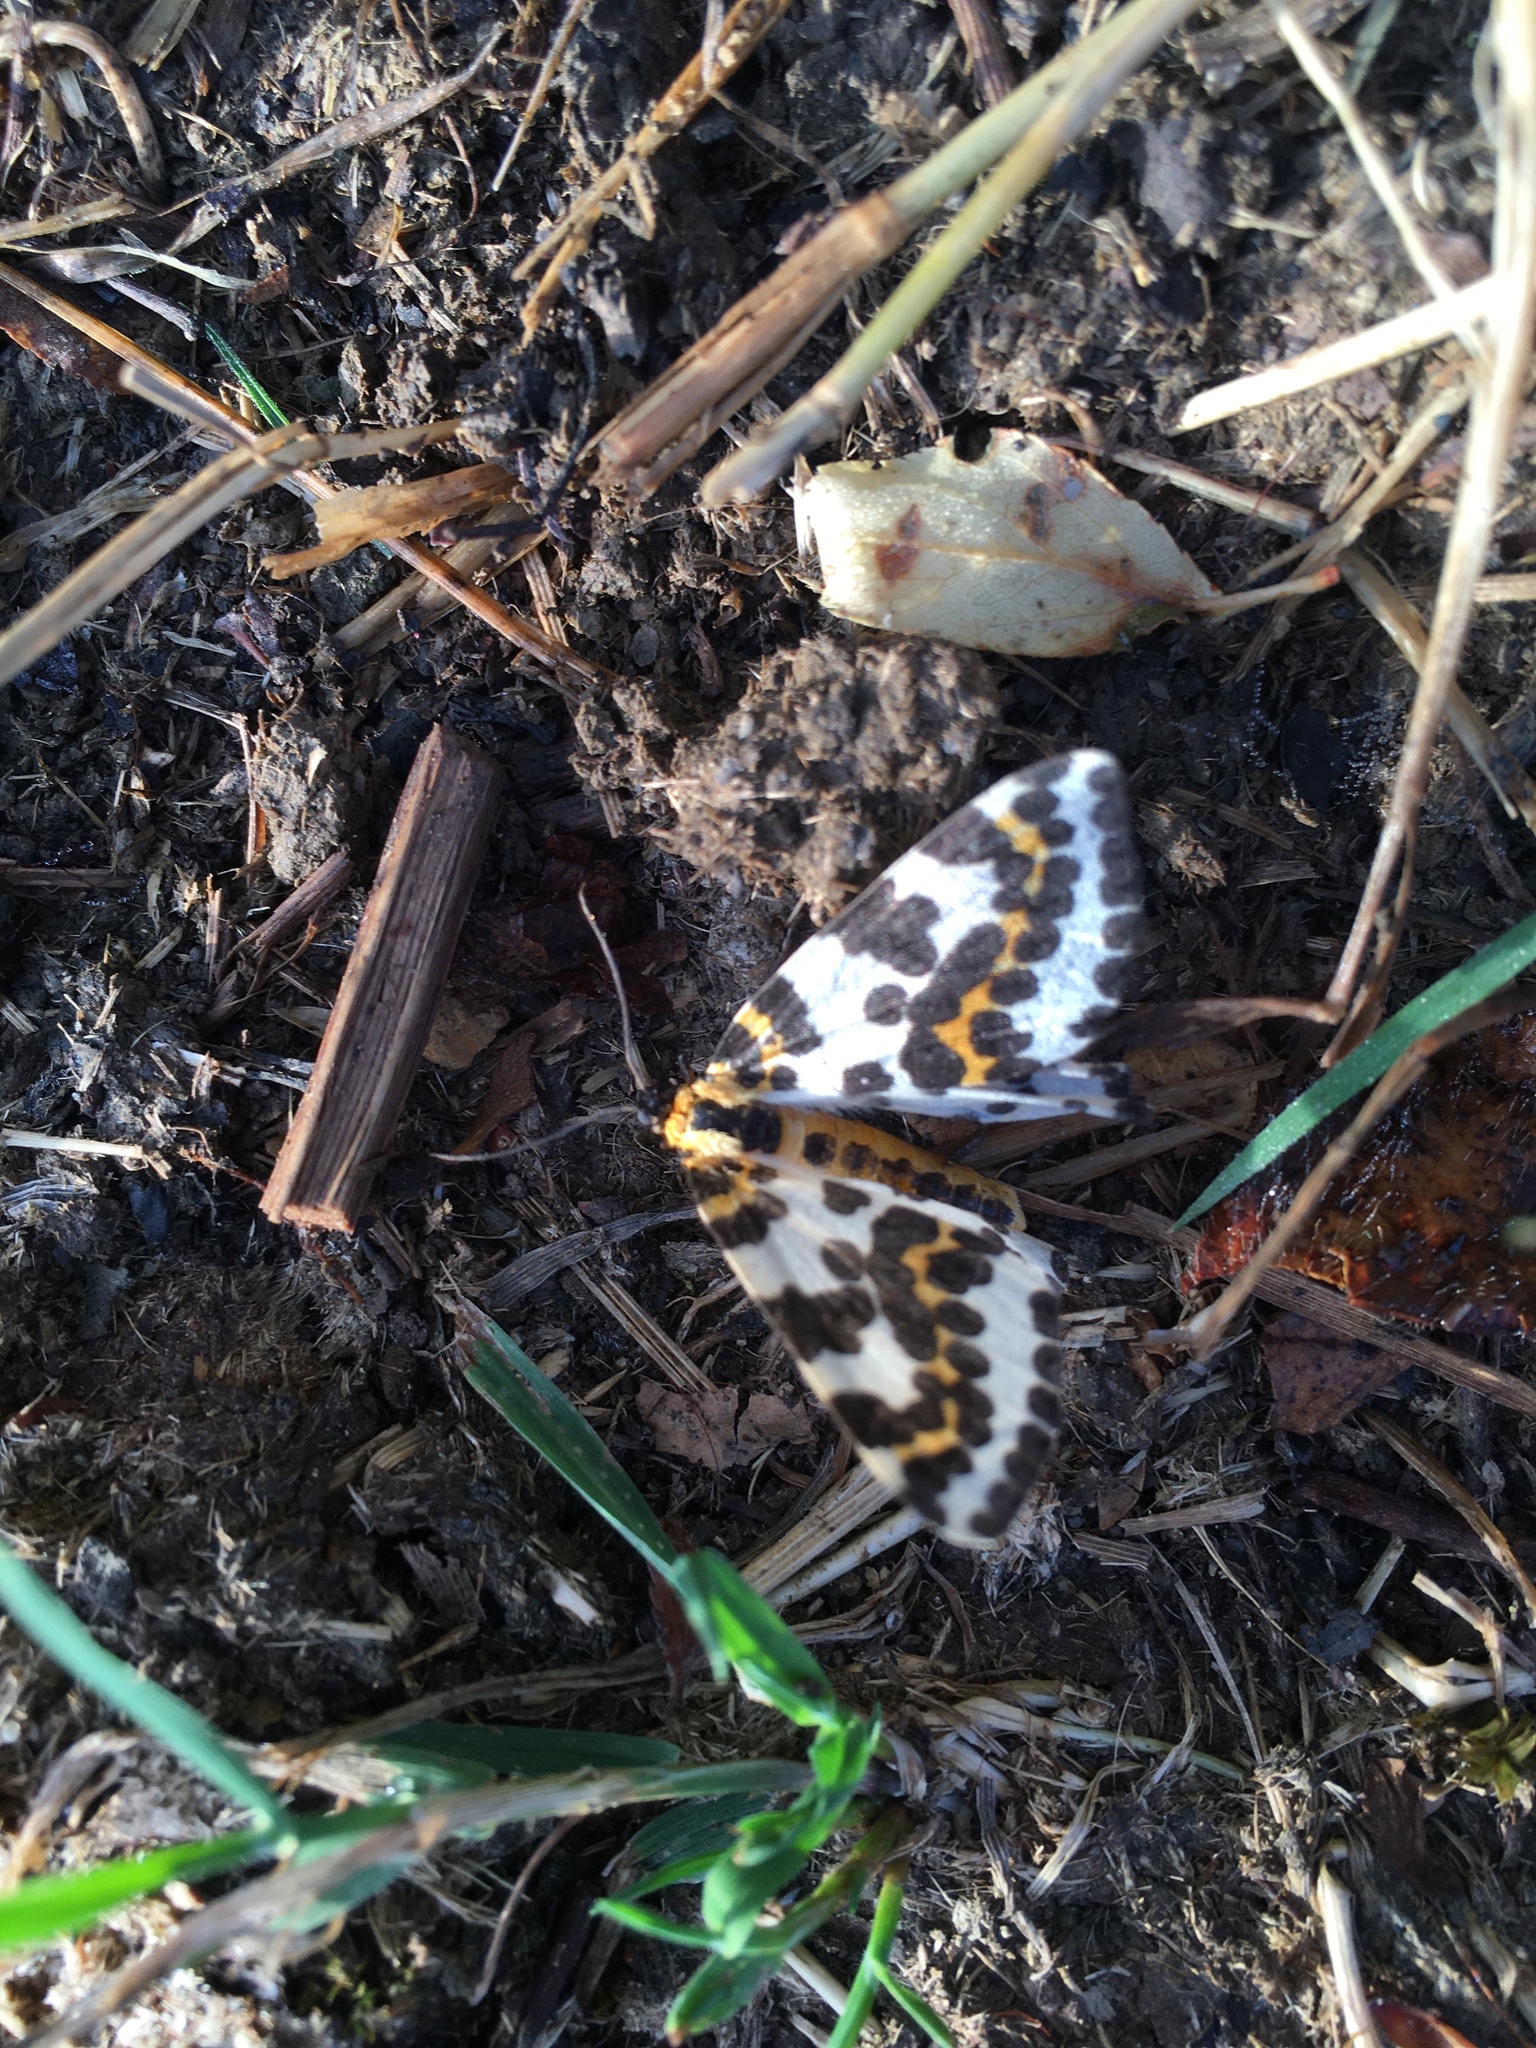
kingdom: Animalia
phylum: Arthropoda
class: Insecta
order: Lepidoptera
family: Geometridae
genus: Abraxas
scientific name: Abraxas grossulariata
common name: Magpie
